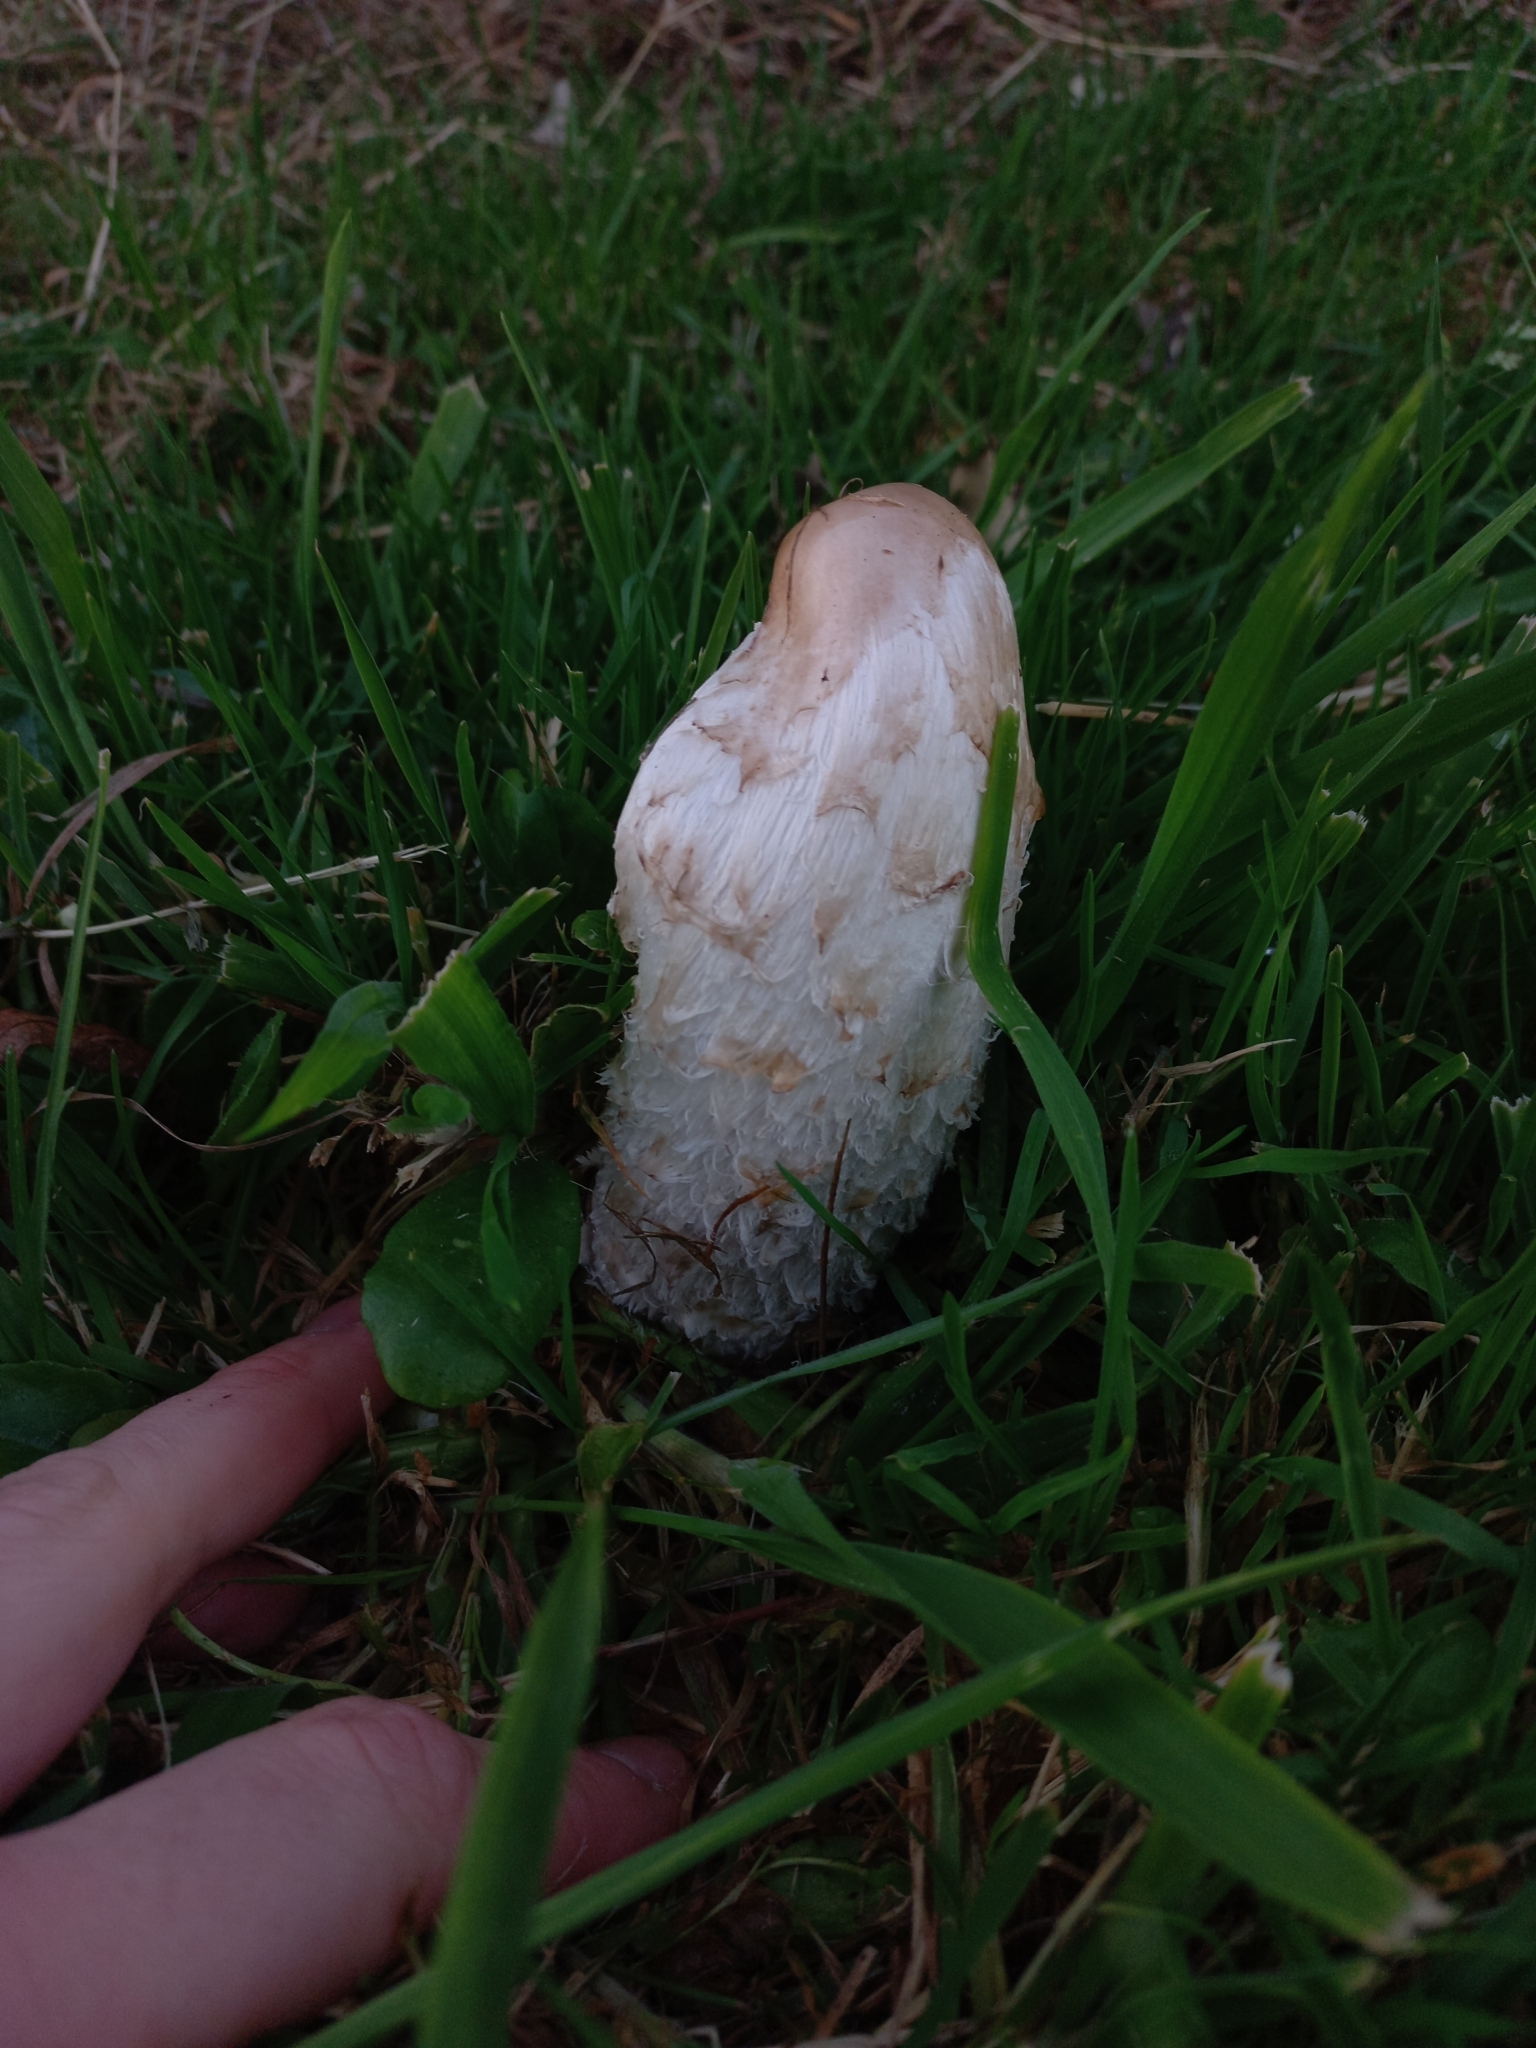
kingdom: Fungi
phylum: Basidiomycota
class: Agaricomycetes
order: Agaricales
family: Agaricaceae
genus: Coprinus
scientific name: Coprinus comatus
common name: Lawyer's wig
